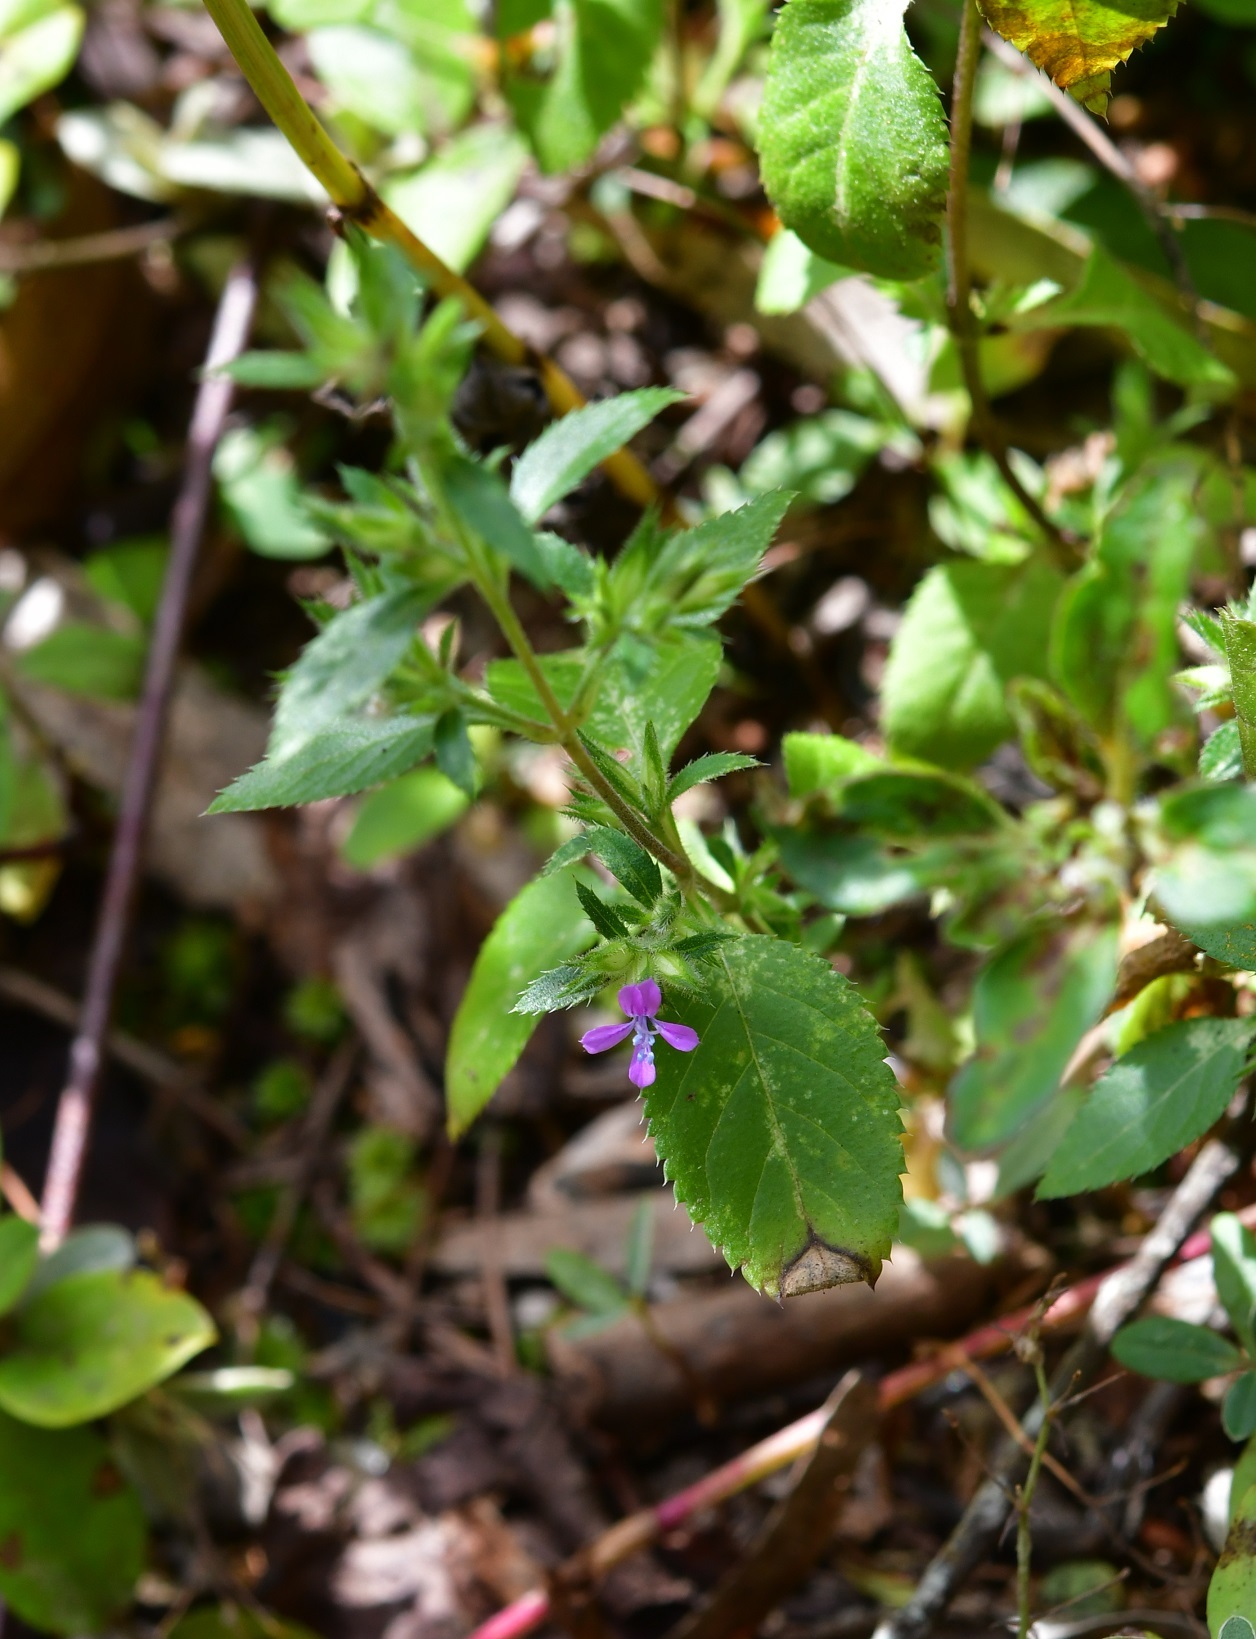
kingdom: Plantae
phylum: Tracheophyta
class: Magnoliopsida
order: Ericales
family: Polemoniaceae
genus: Loeselia
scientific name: Loeselia glandulosa
